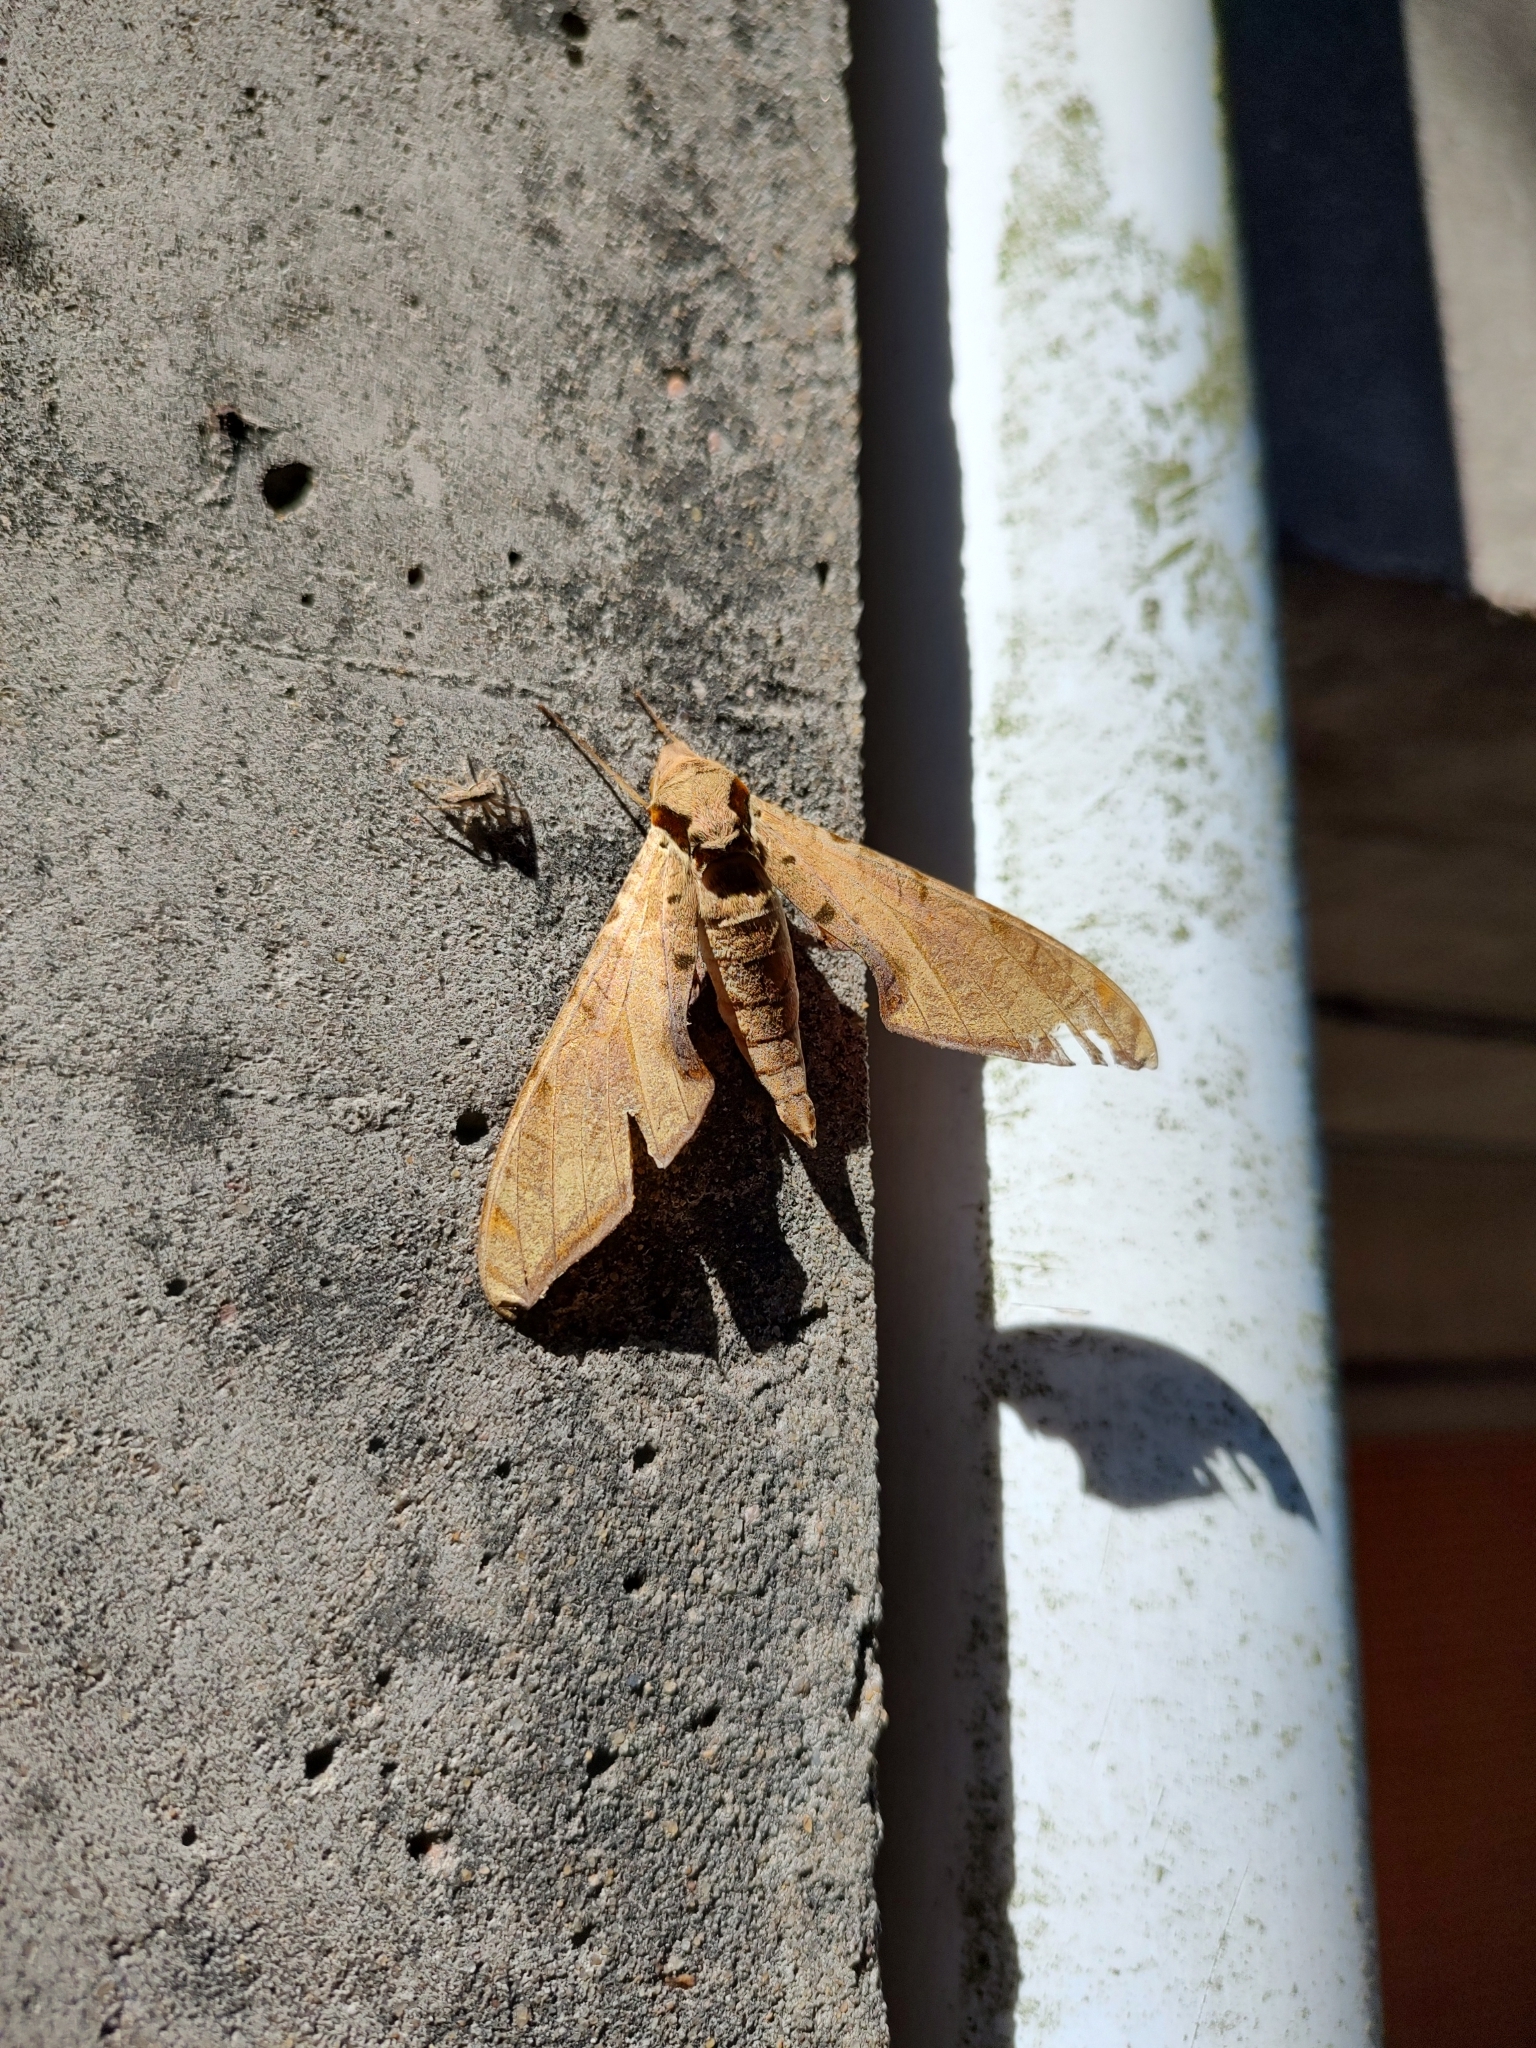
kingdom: Animalia
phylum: Arthropoda
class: Insecta
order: Lepidoptera
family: Sphingidae
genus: Protambulyx
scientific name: Protambulyx strigilis
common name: Streaked sphinx
